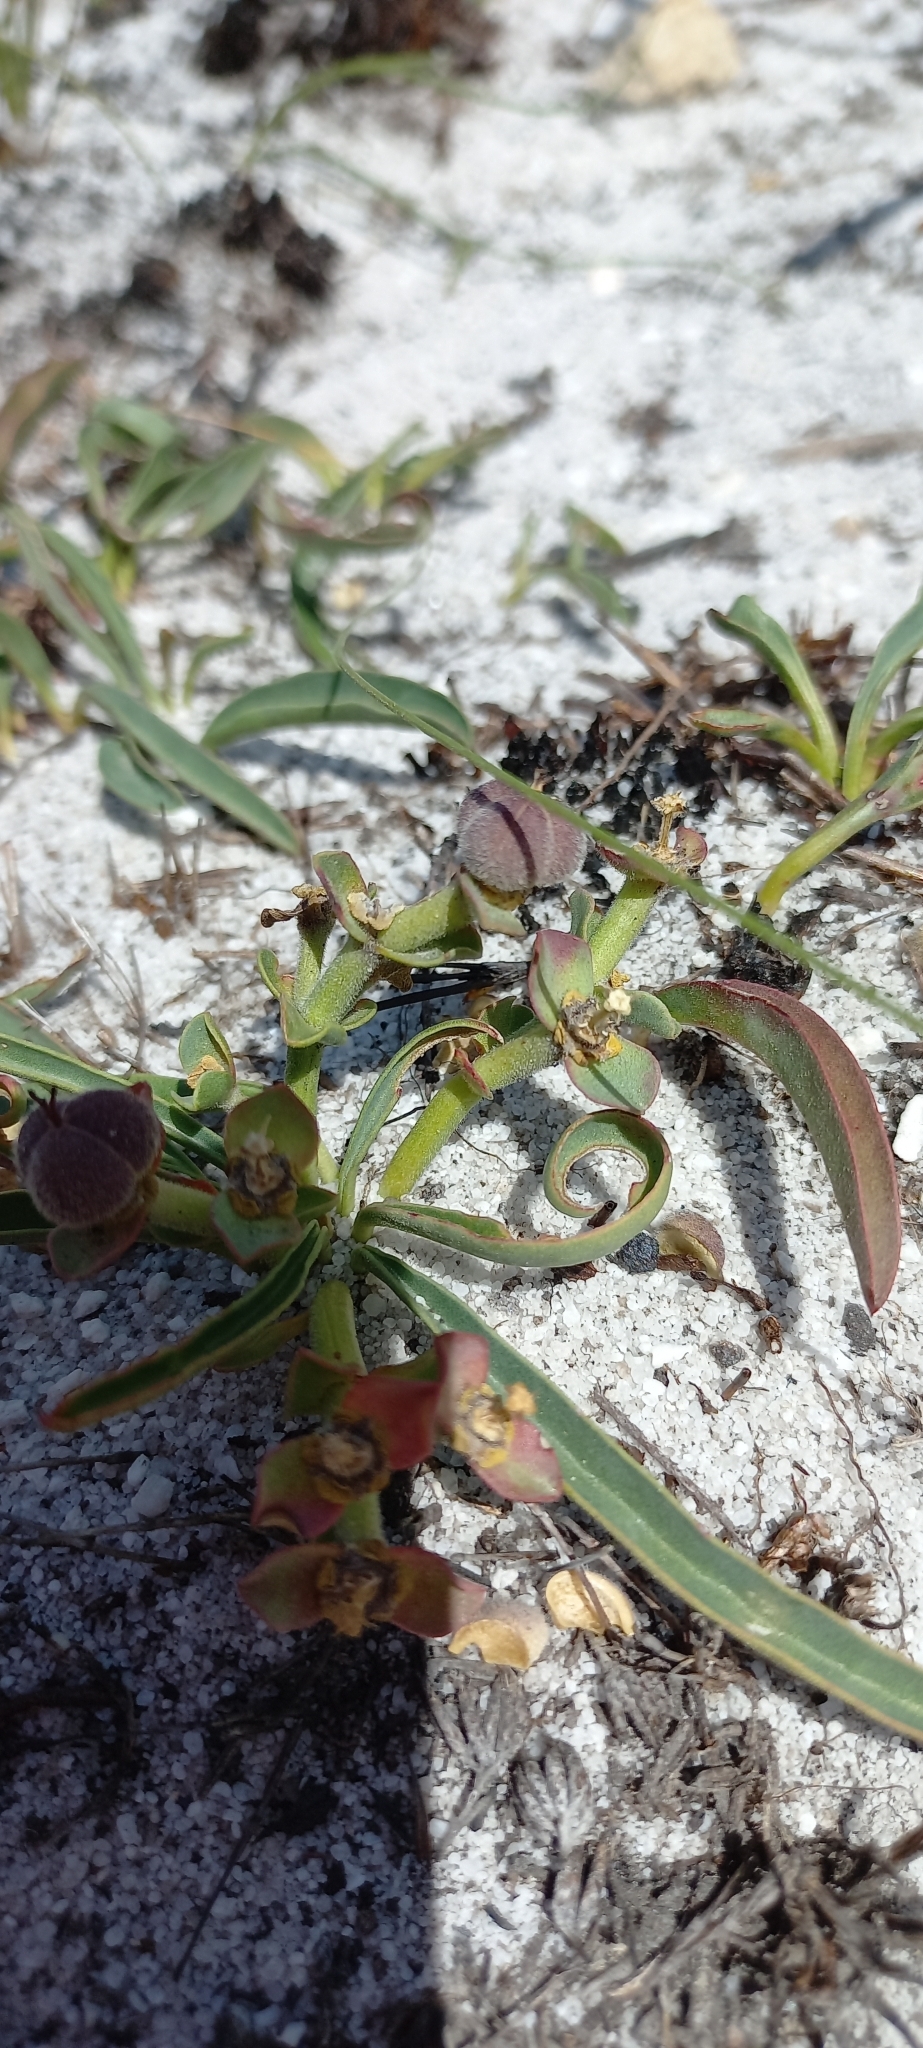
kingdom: Plantae
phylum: Tracheophyta
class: Magnoliopsida
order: Malpighiales
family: Euphorbiaceae
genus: Euphorbia
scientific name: Euphorbia silenifolia
